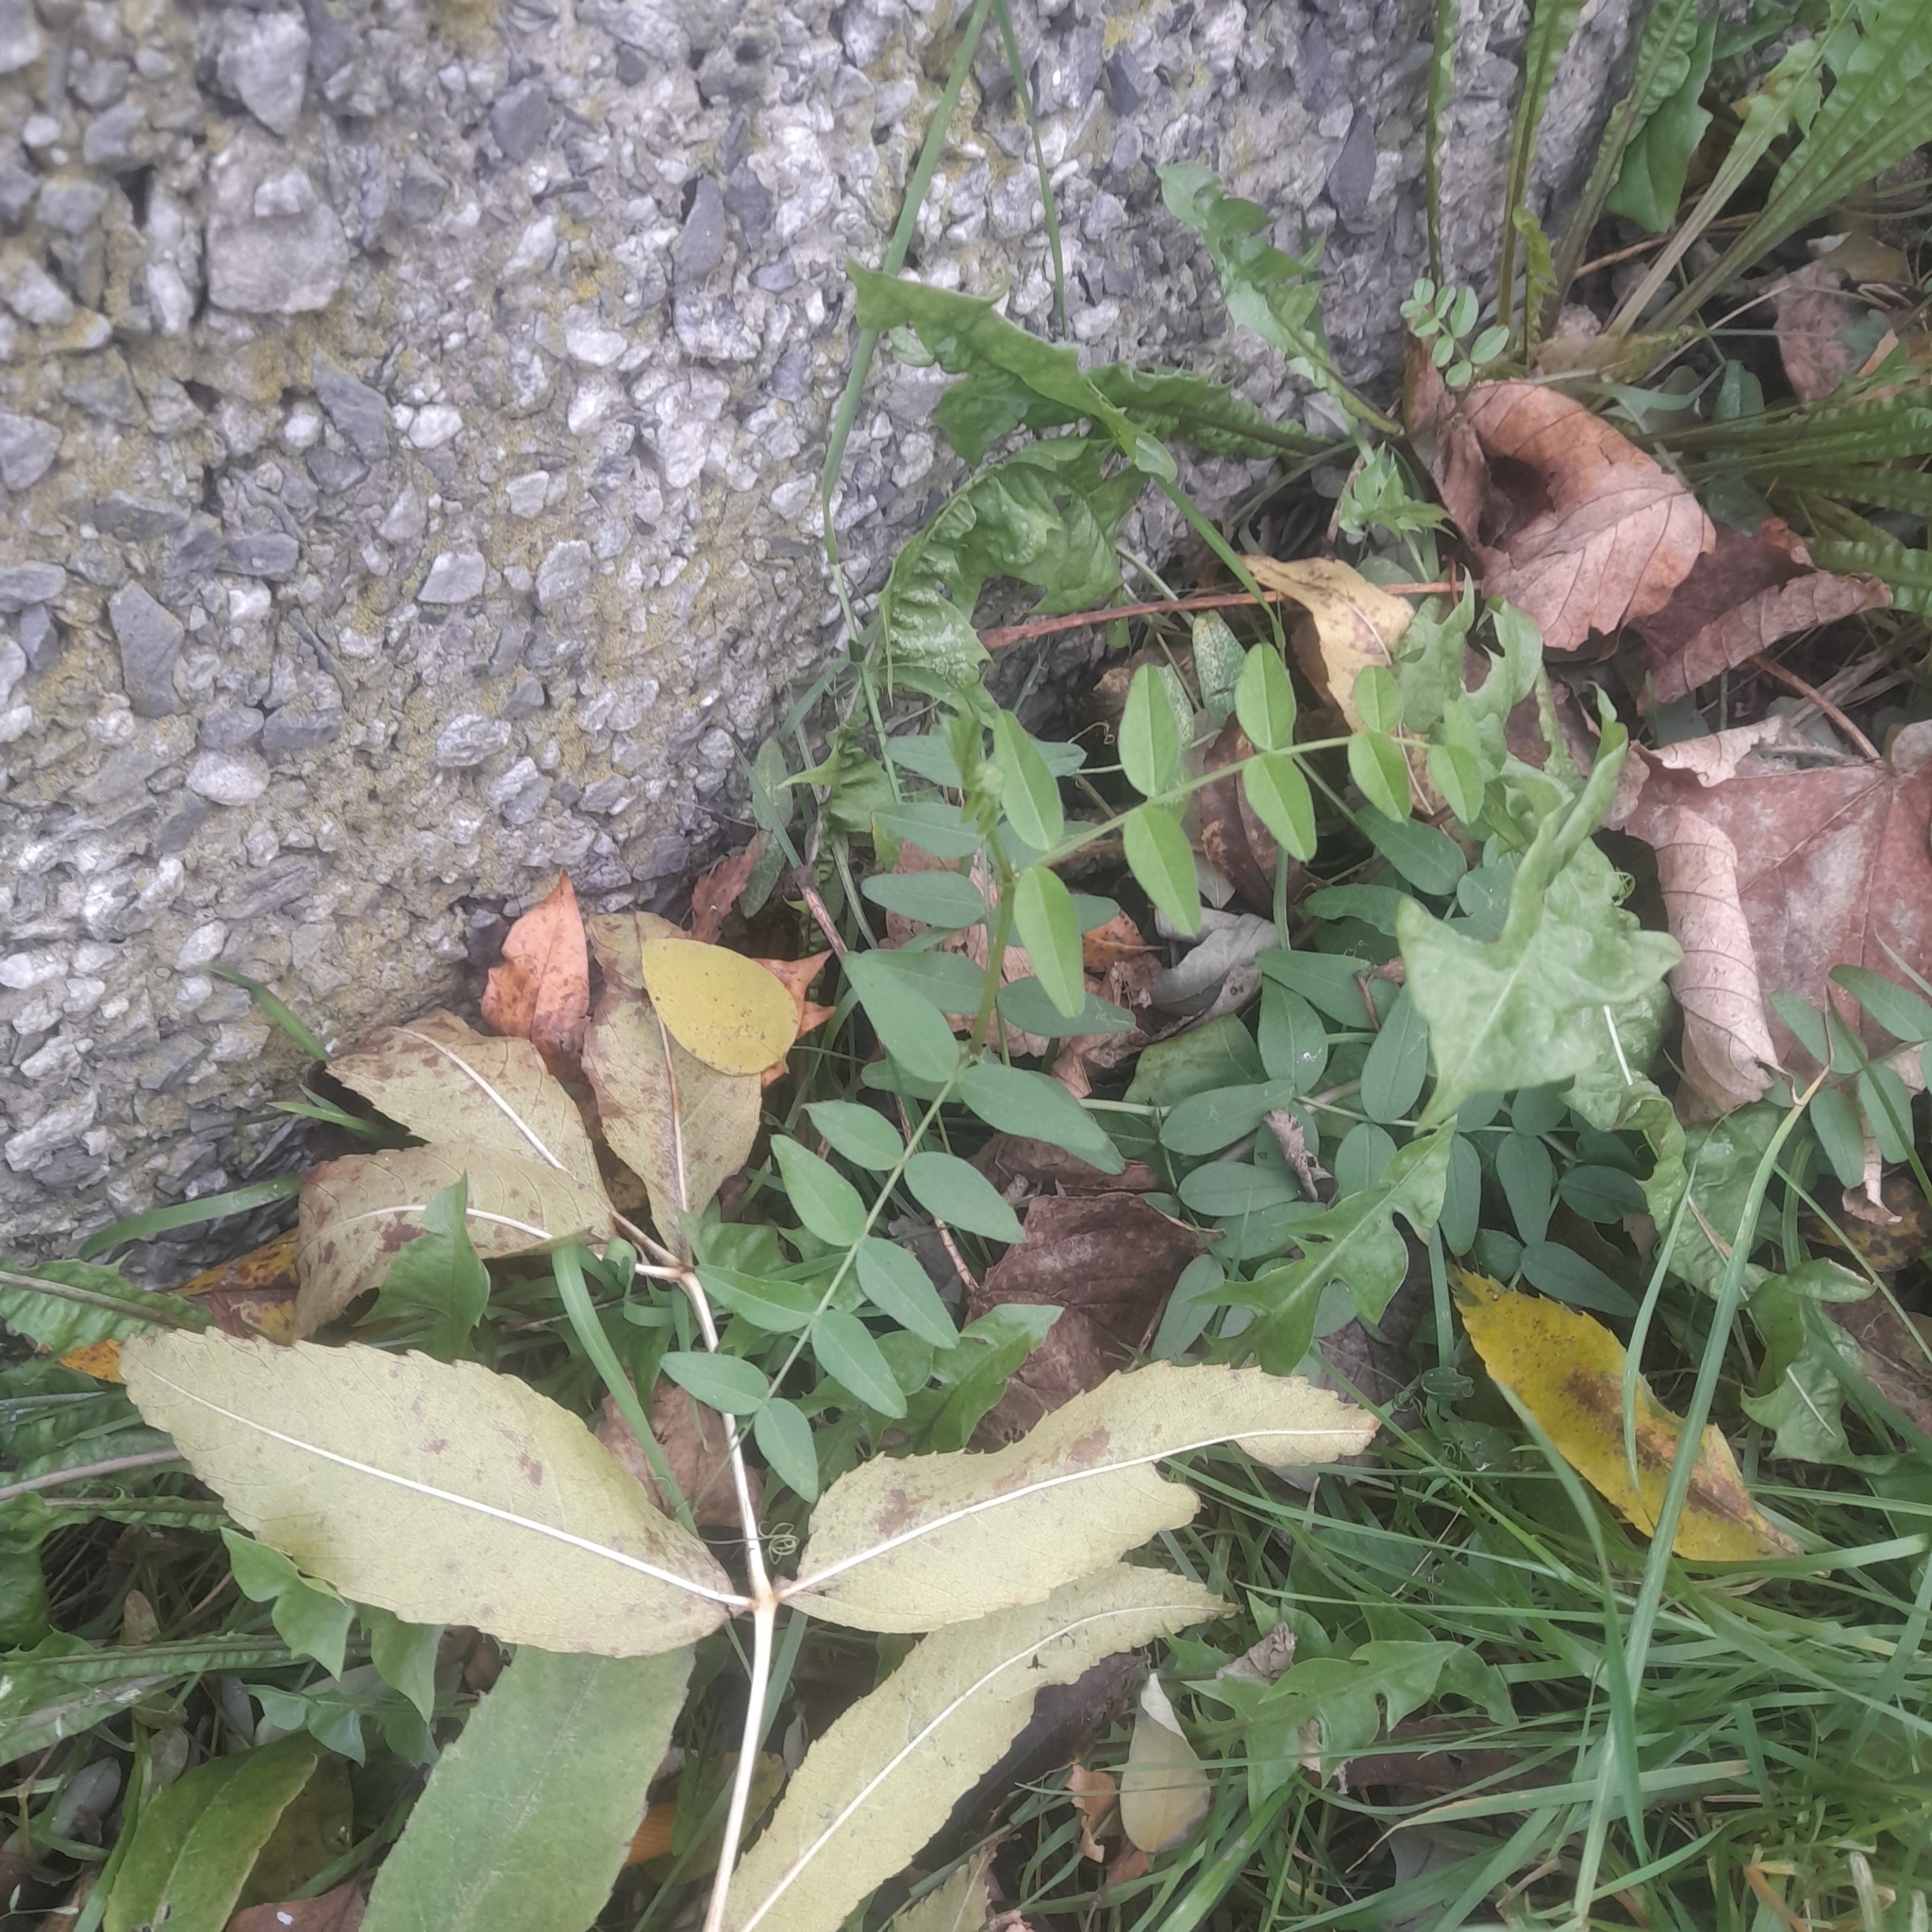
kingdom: Plantae
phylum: Tracheophyta
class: Magnoliopsida
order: Fabales
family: Fabaceae
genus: Vicia
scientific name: Vicia sepium
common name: Bush vetch
